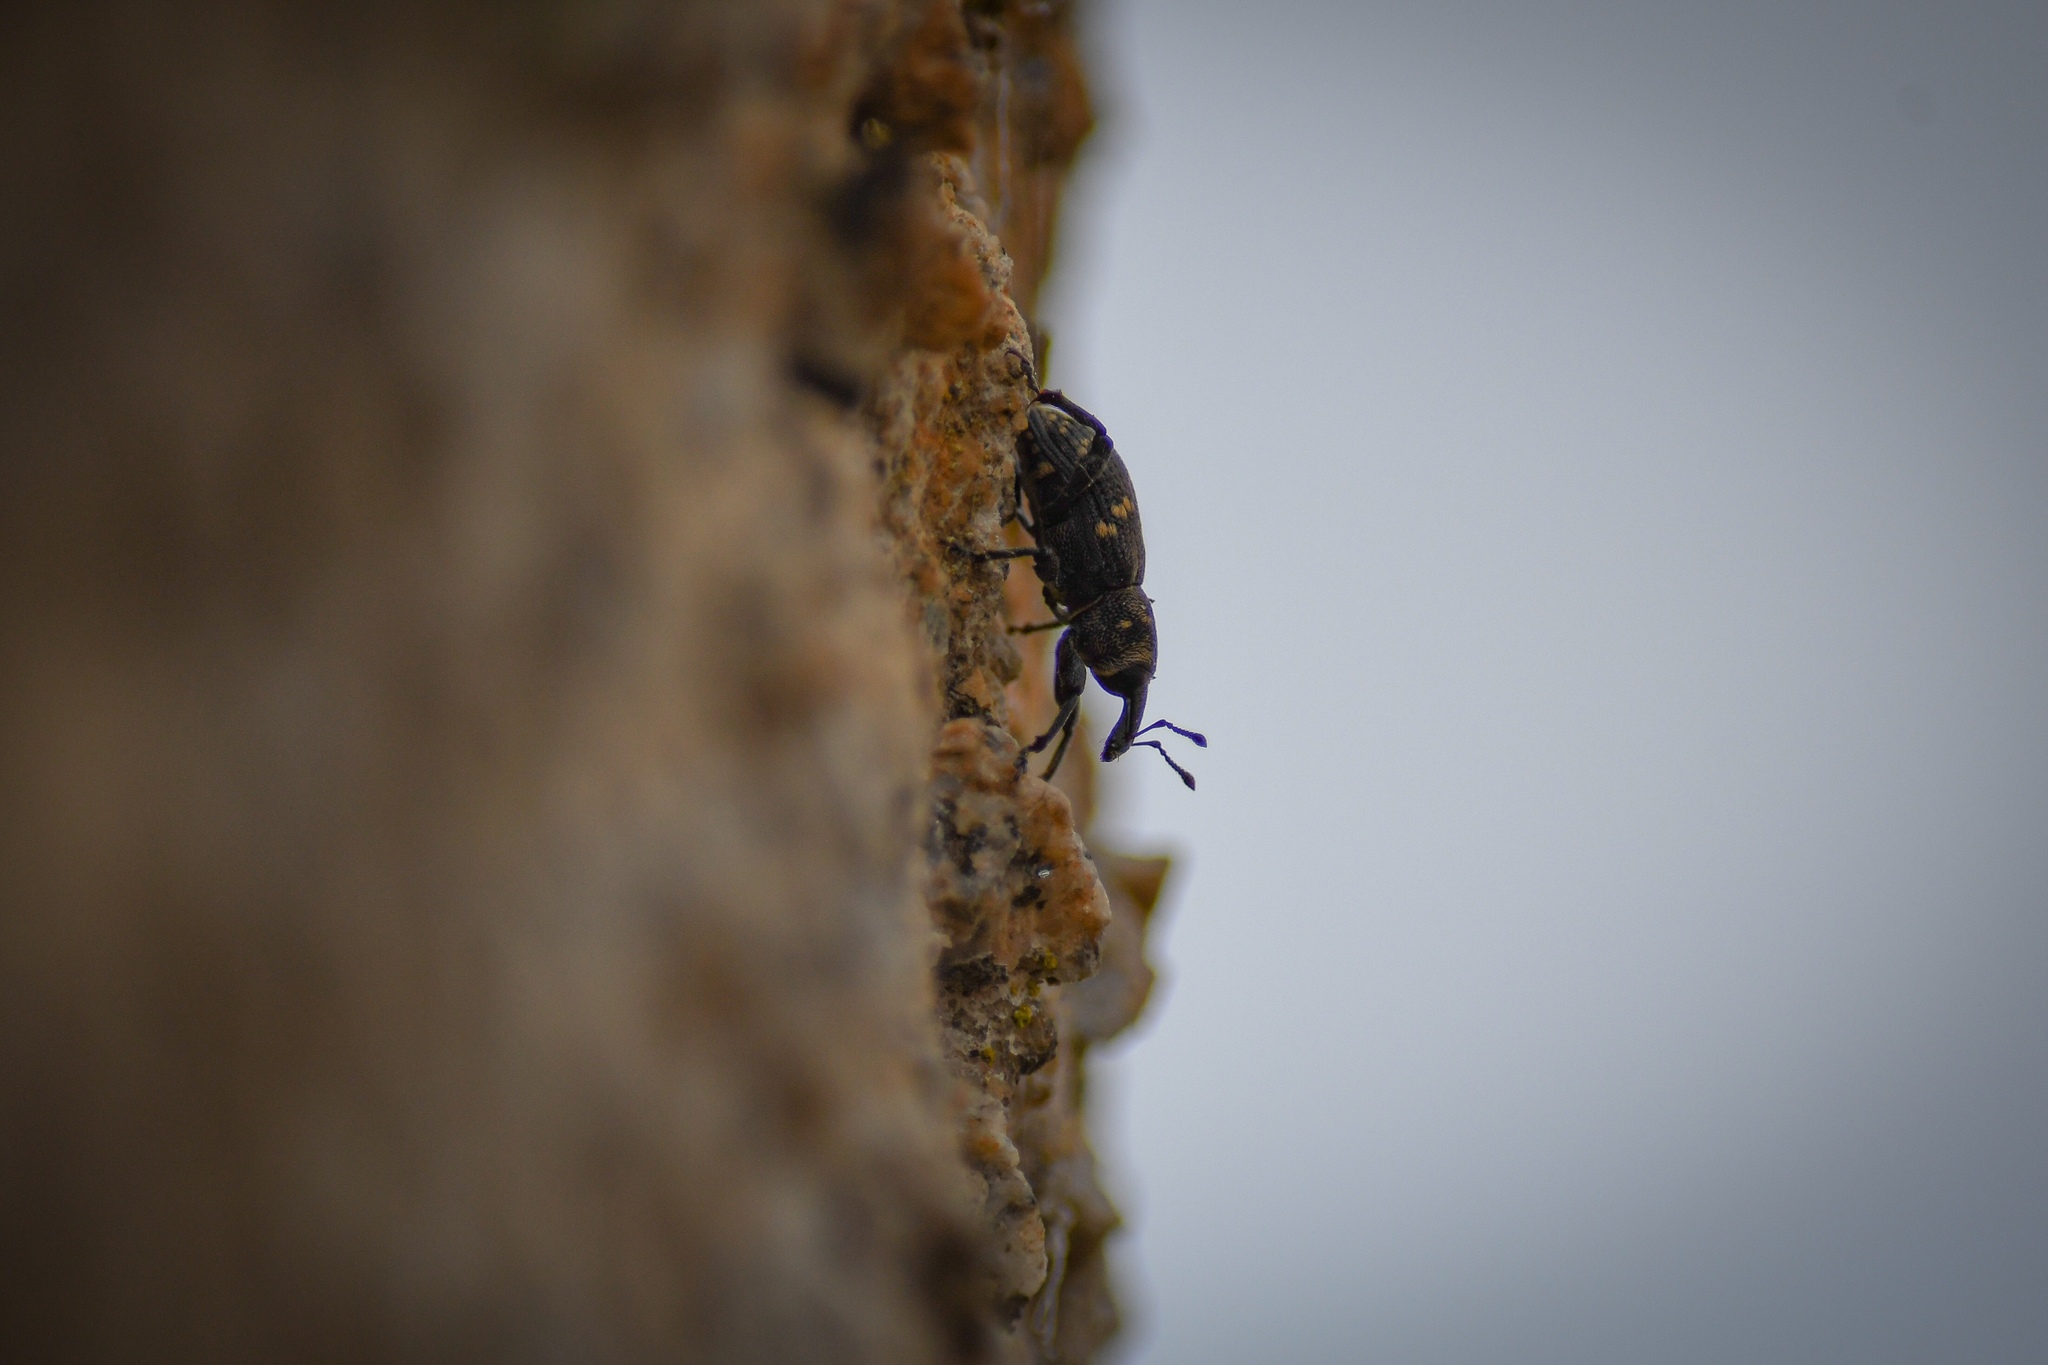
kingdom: Animalia
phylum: Arthropoda
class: Insecta
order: Coleoptera
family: Curculionidae
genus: Hylobius
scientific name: Hylobius abietis
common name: Large pine weevil
